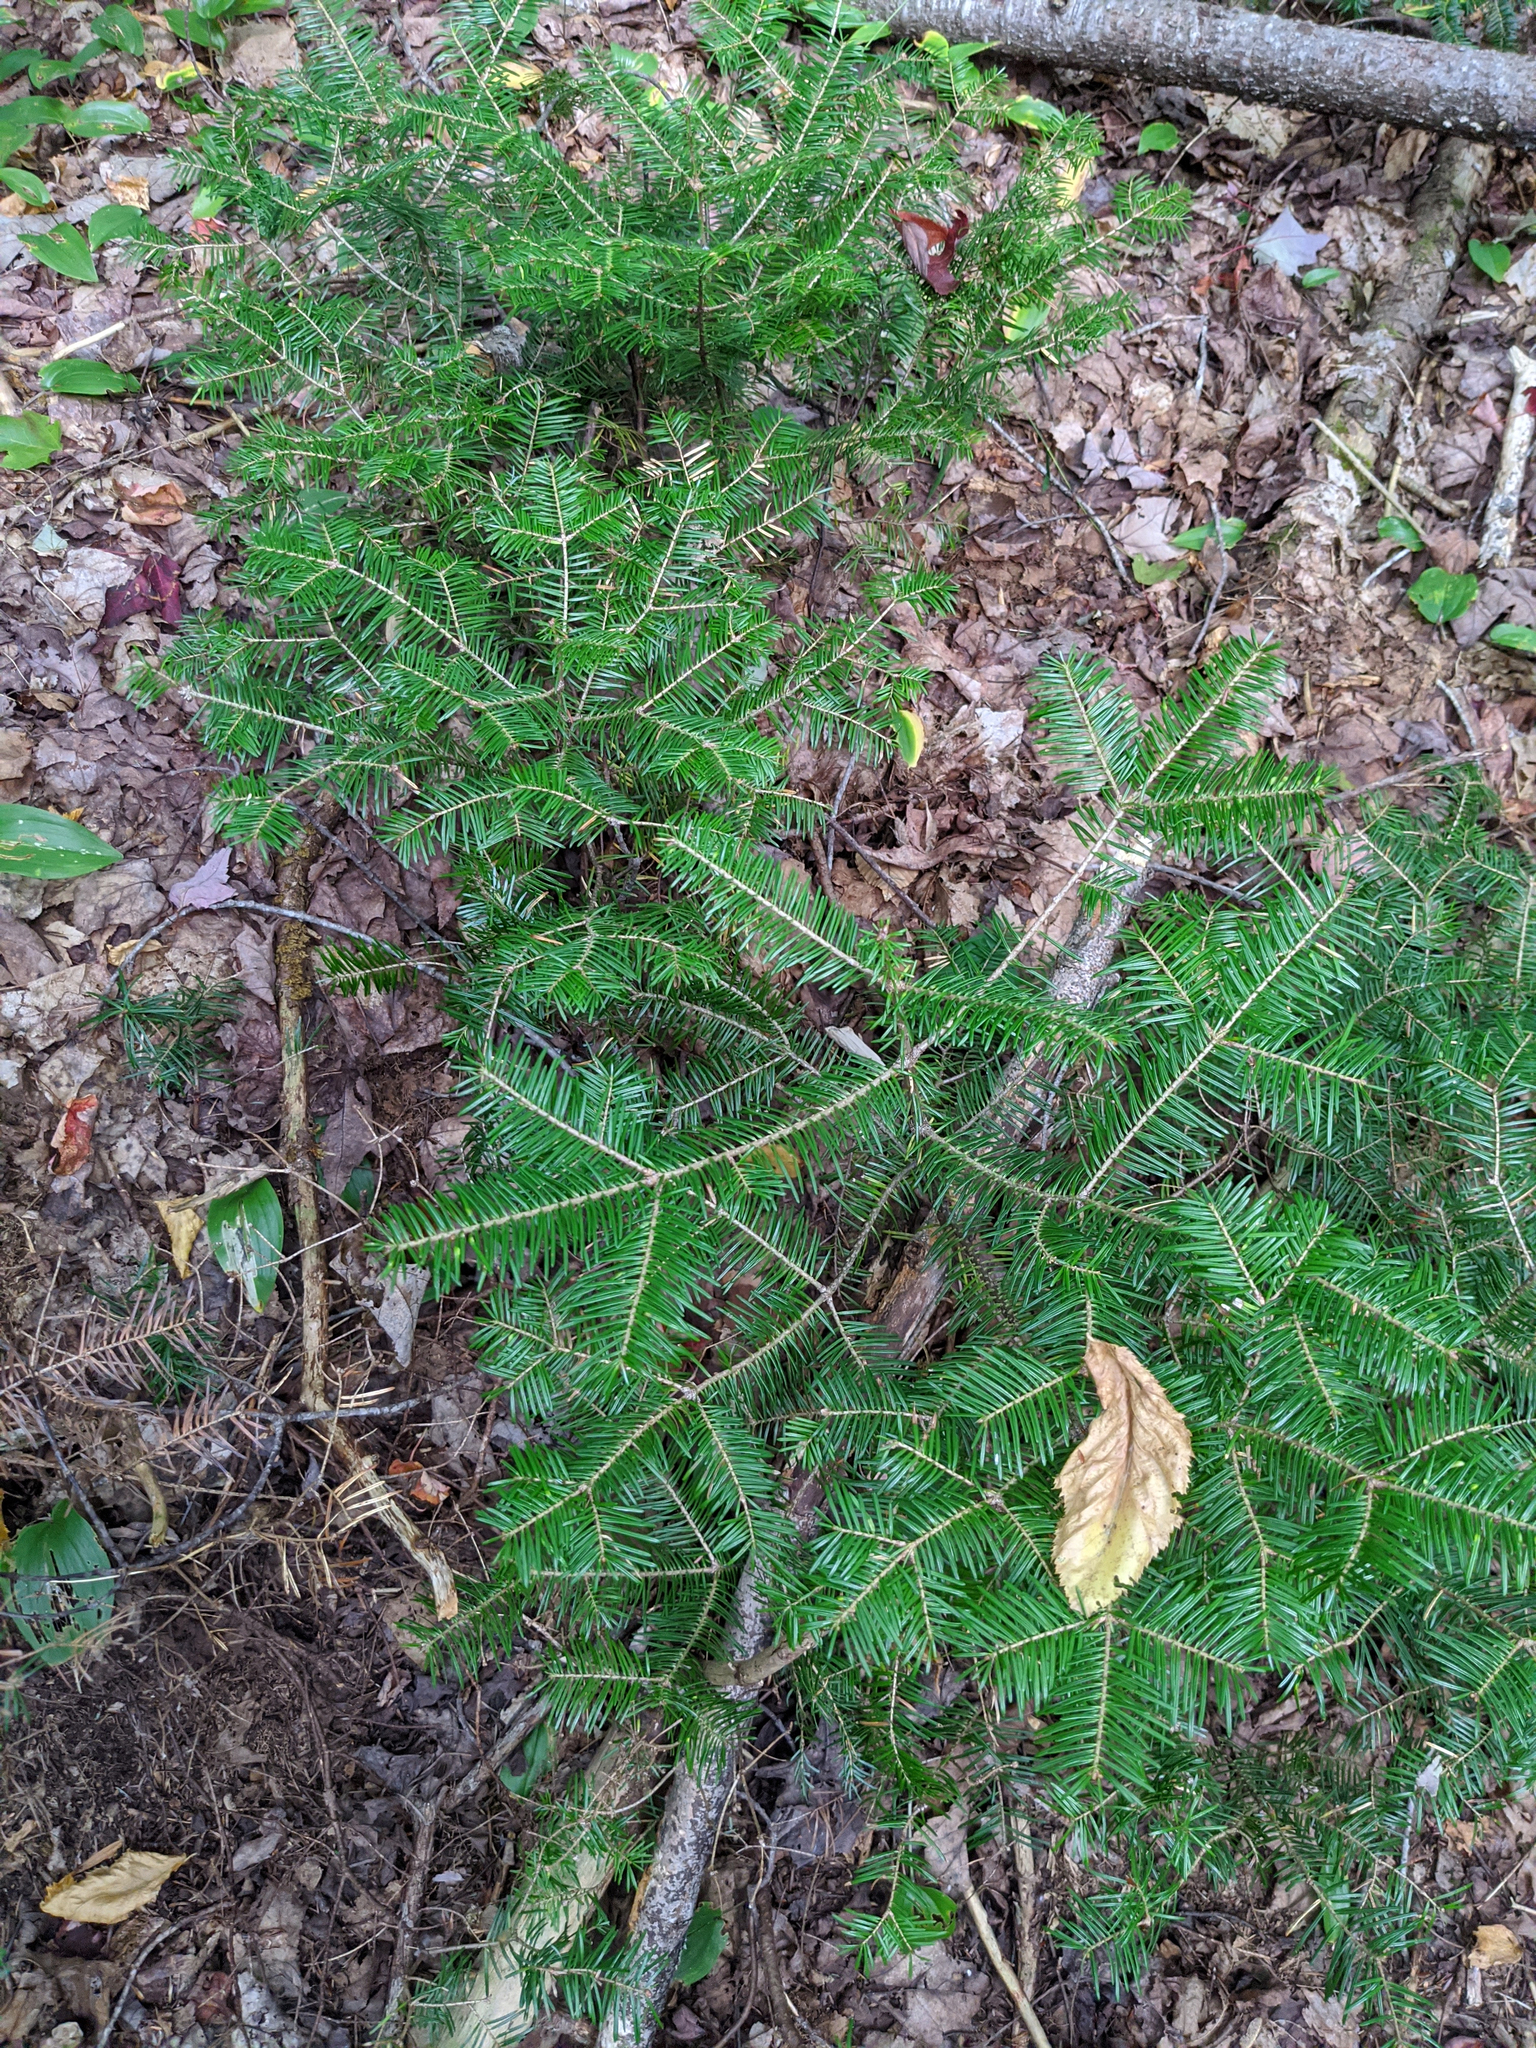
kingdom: Plantae
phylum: Tracheophyta
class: Pinopsida
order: Pinales
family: Pinaceae
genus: Abies
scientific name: Abies balsamea
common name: Balsam fir
